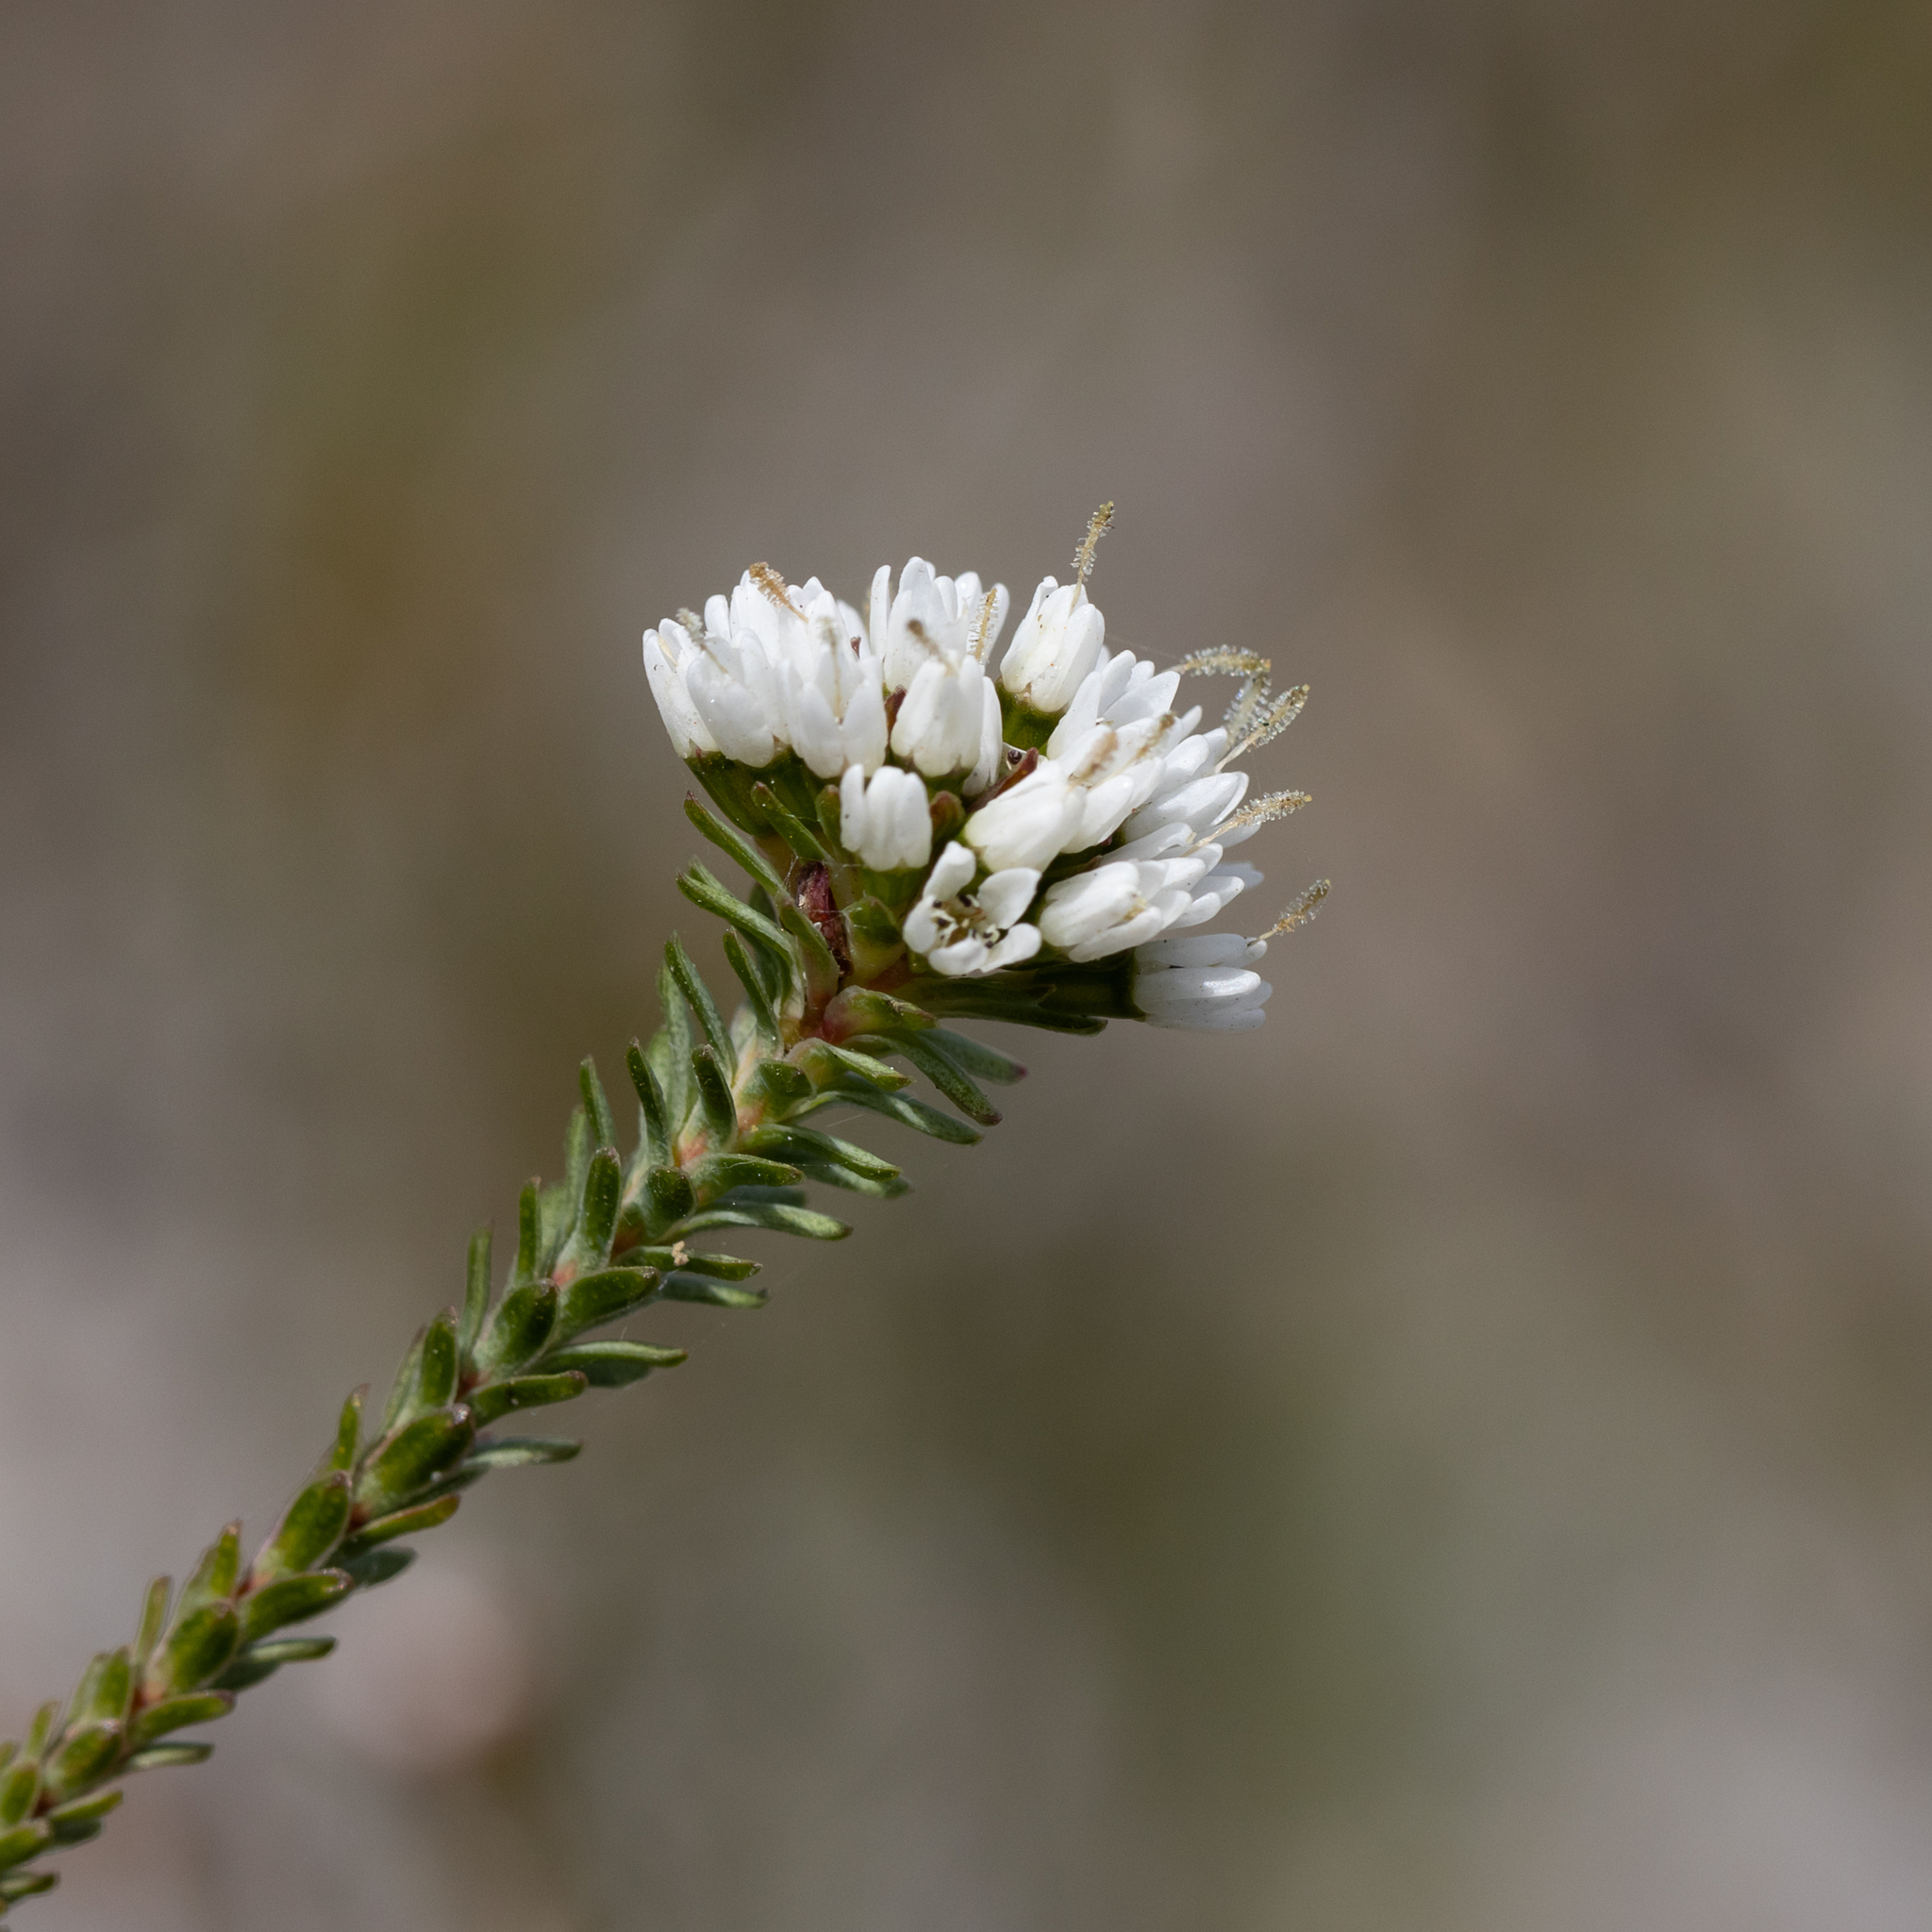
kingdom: Plantae
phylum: Tracheophyta
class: Magnoliopsida
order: Myrtales
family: Myrtaceae
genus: Darwinia
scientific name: Darwinia vestita
